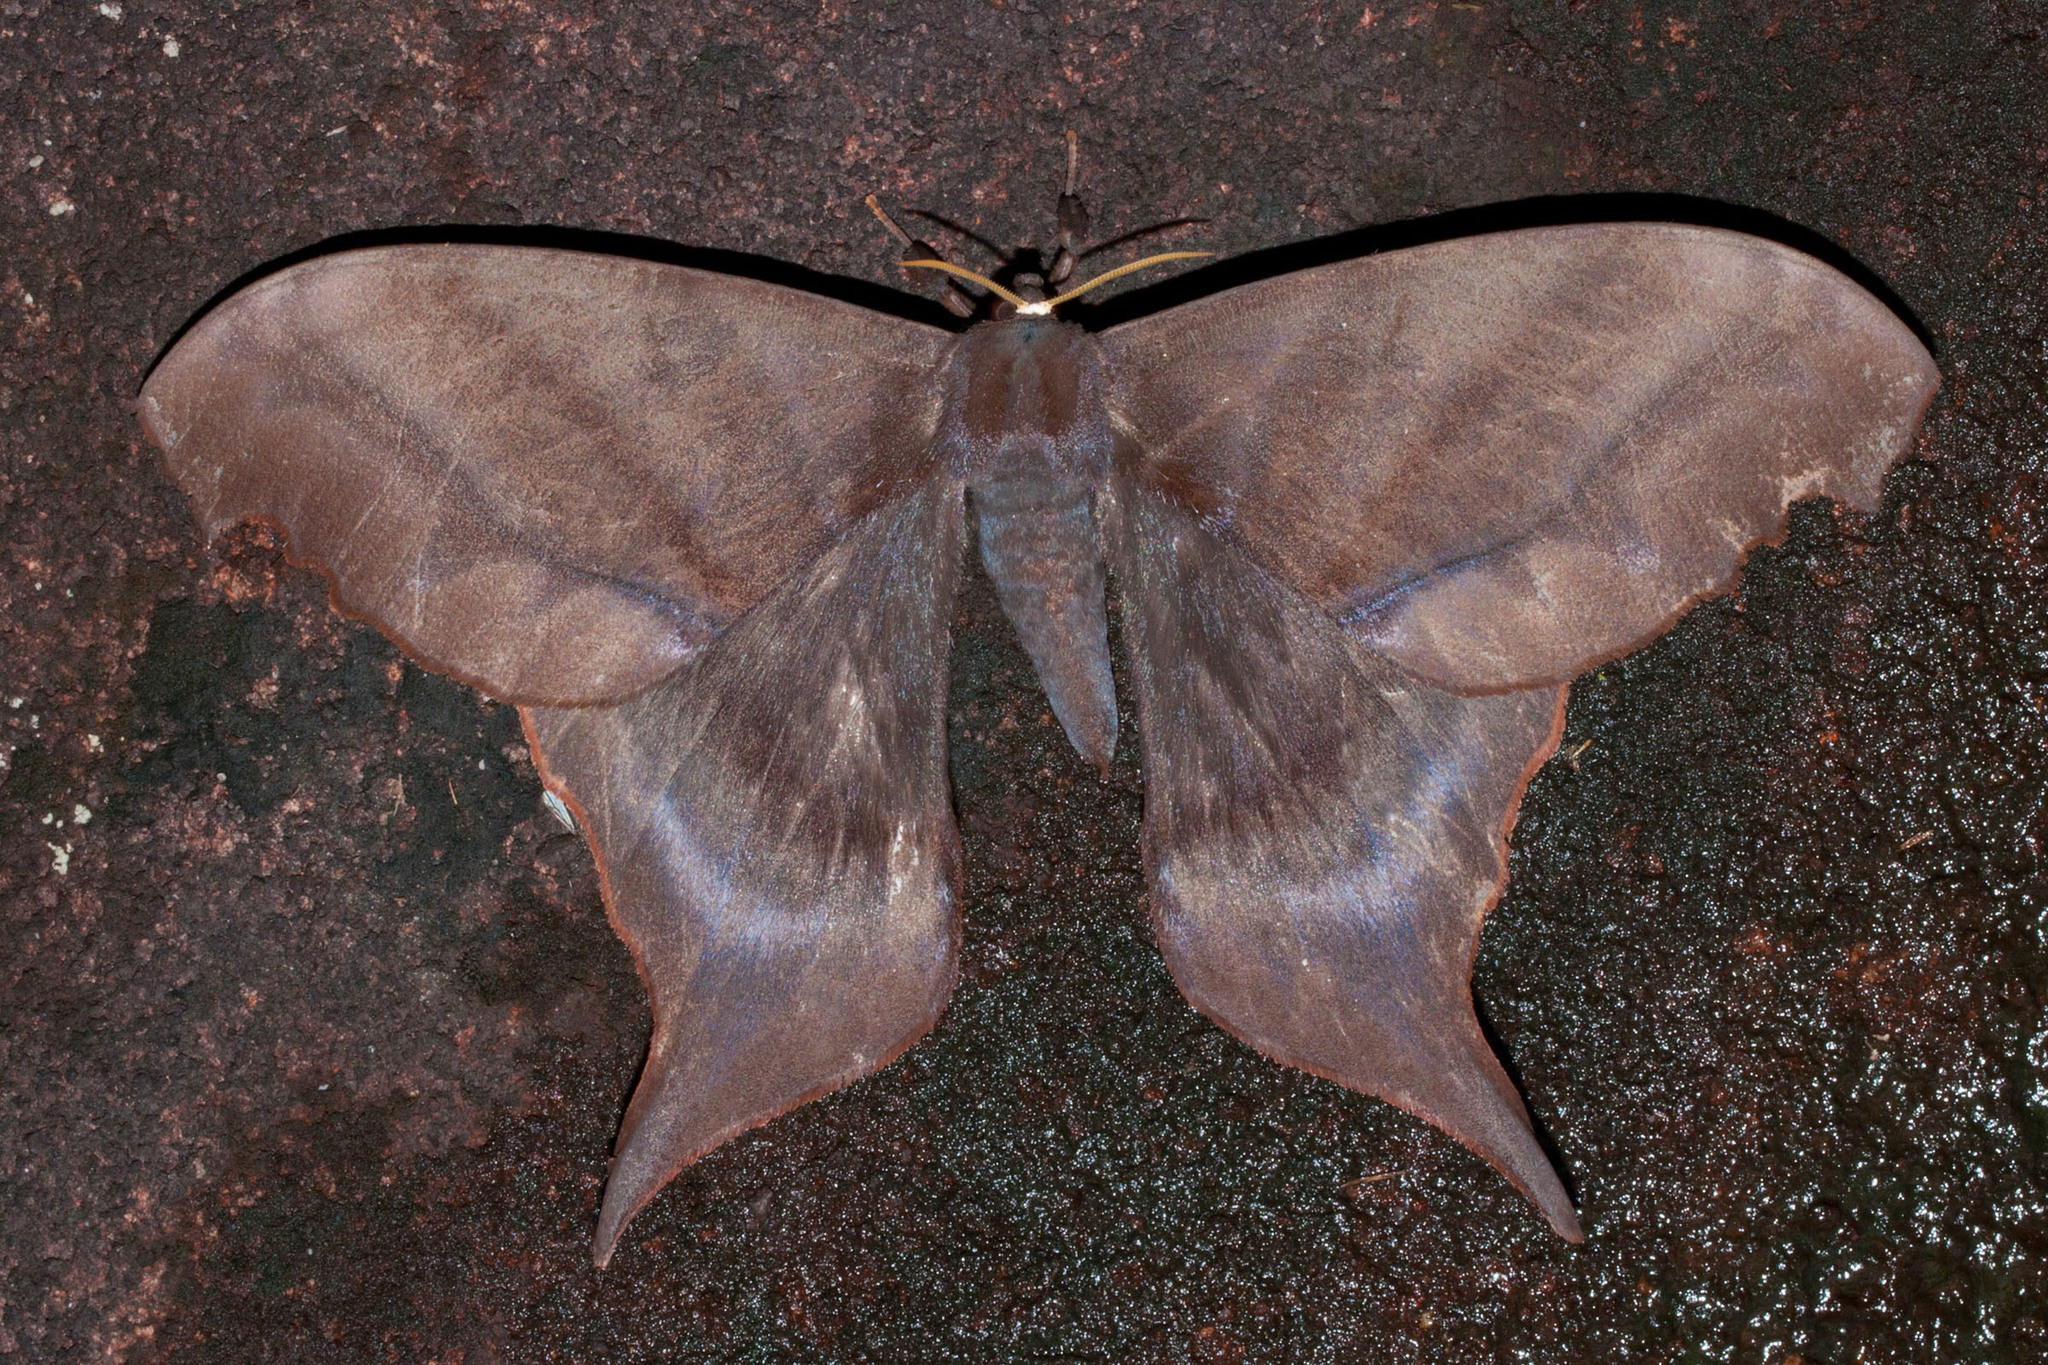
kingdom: Animalia
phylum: Arthropoda
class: Insecta
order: Lepidoptera
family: Saturniidae
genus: Paradaemonia
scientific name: Paradaemonia platydesmia
